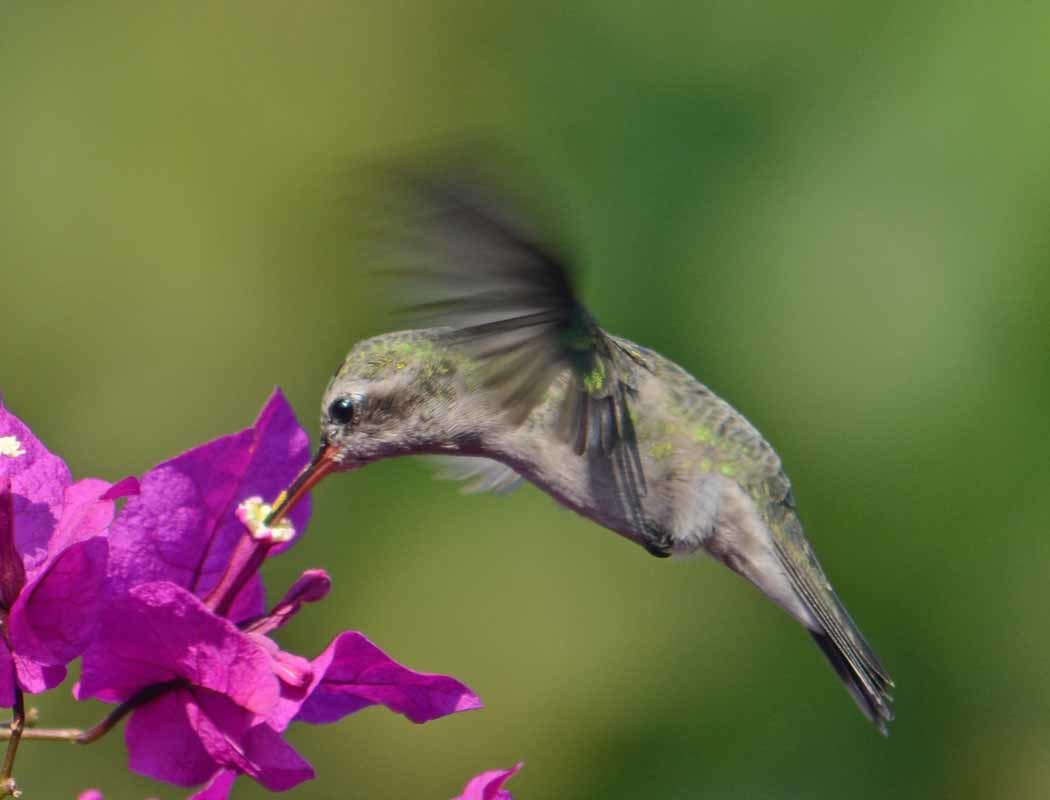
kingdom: Animalia
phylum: Chordata
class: Aves
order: Apodiformes
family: Trochilidae
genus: Cynanthus
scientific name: Cynanthus latirostris
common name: Broad-billed hummingbird
